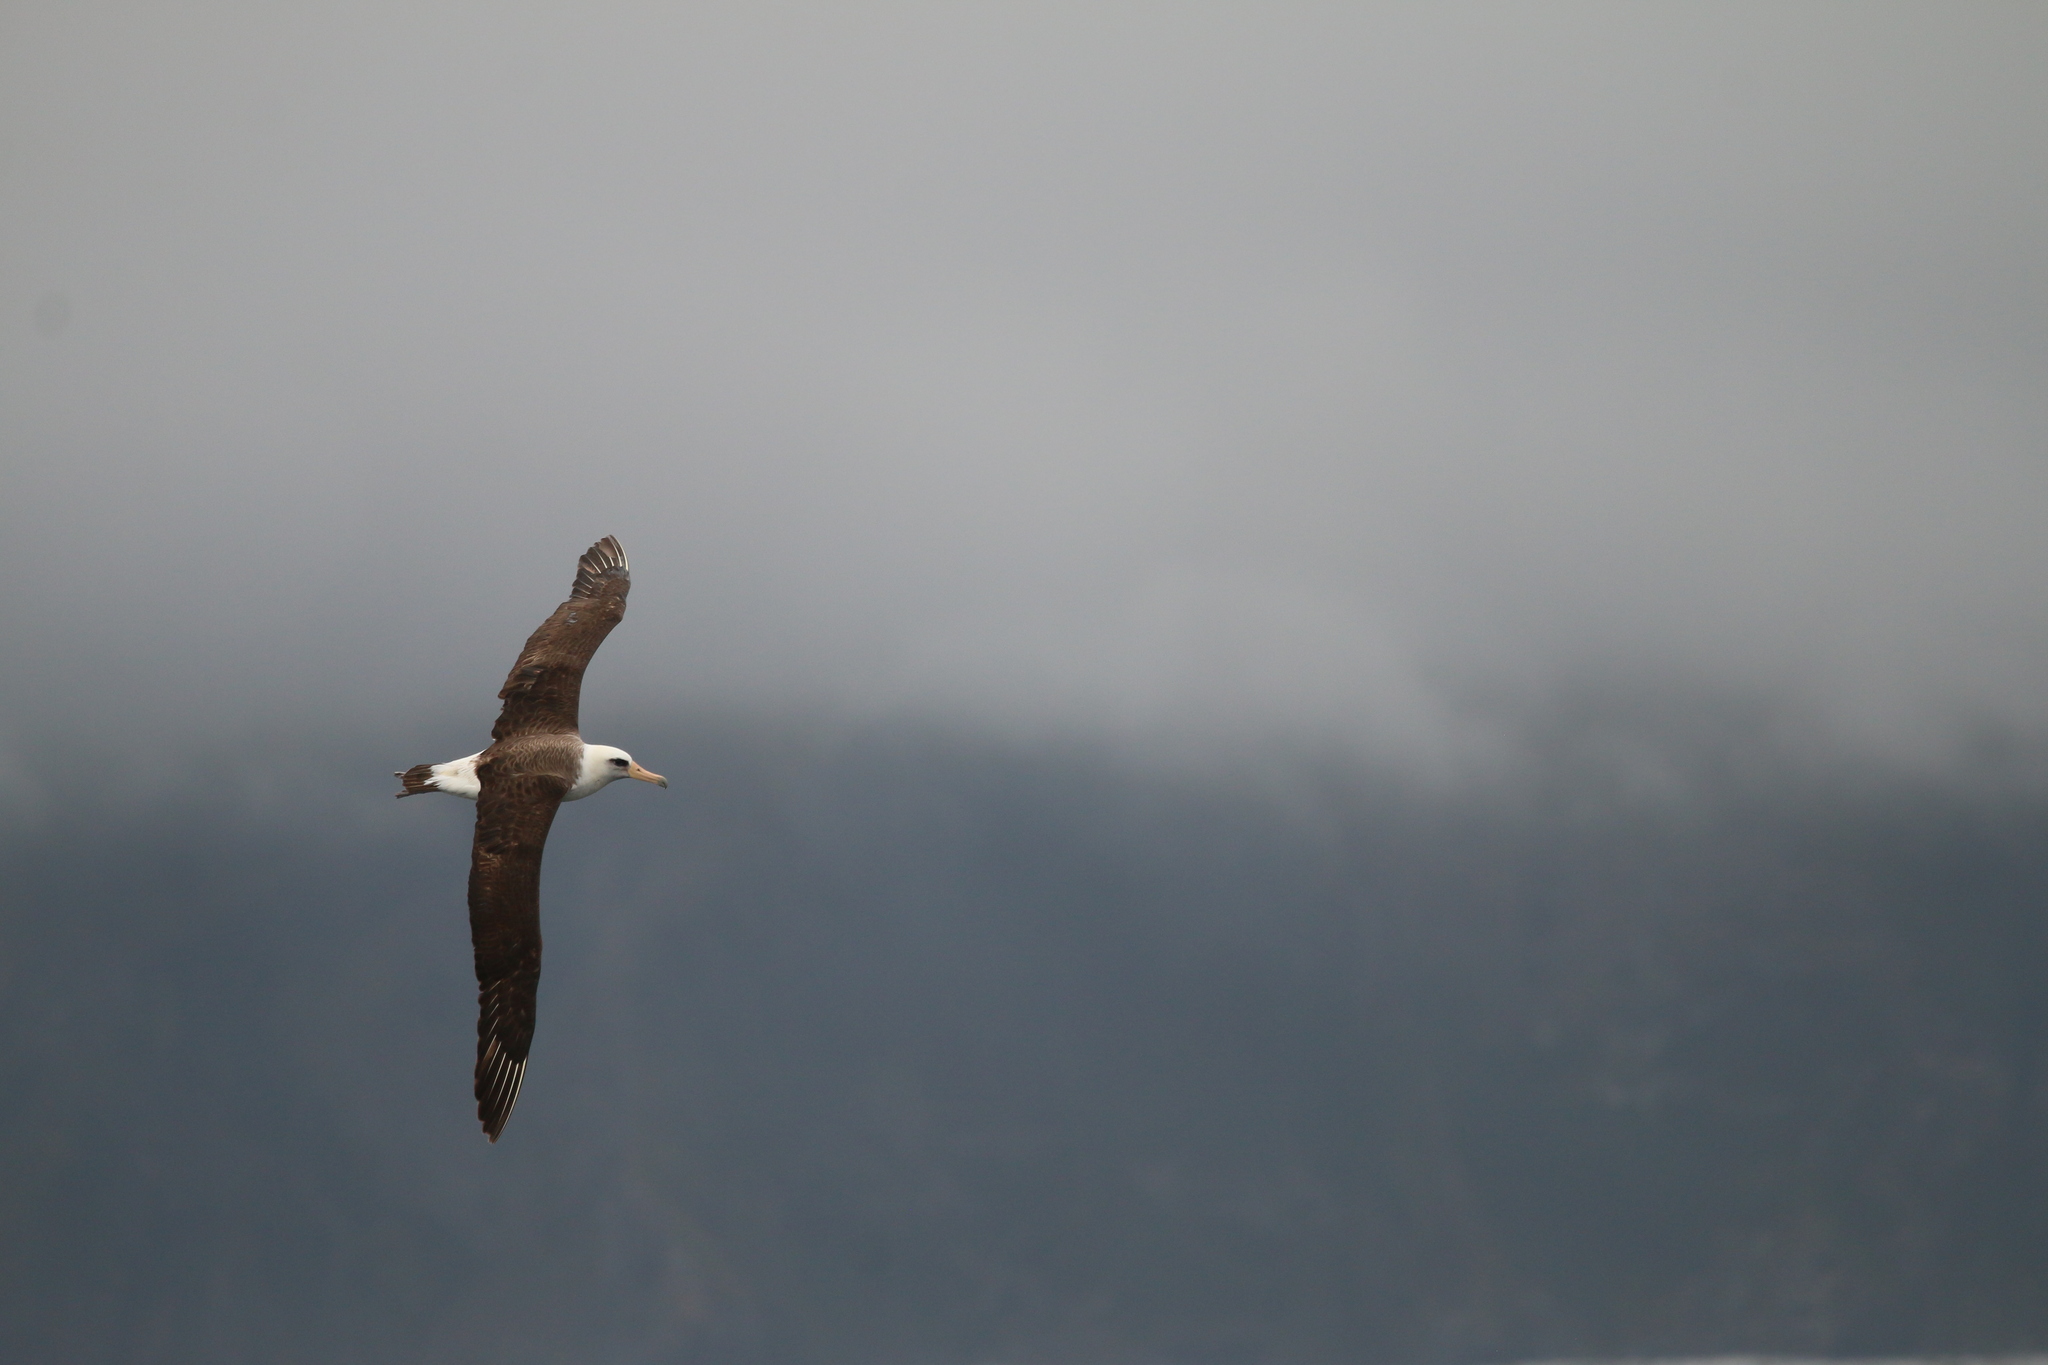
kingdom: Animalia
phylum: Chordata
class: Aves
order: Procellariiformes
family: Diomedeidae
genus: Phoebastria
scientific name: Phoebastria immutabilis
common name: Laysan albatross
